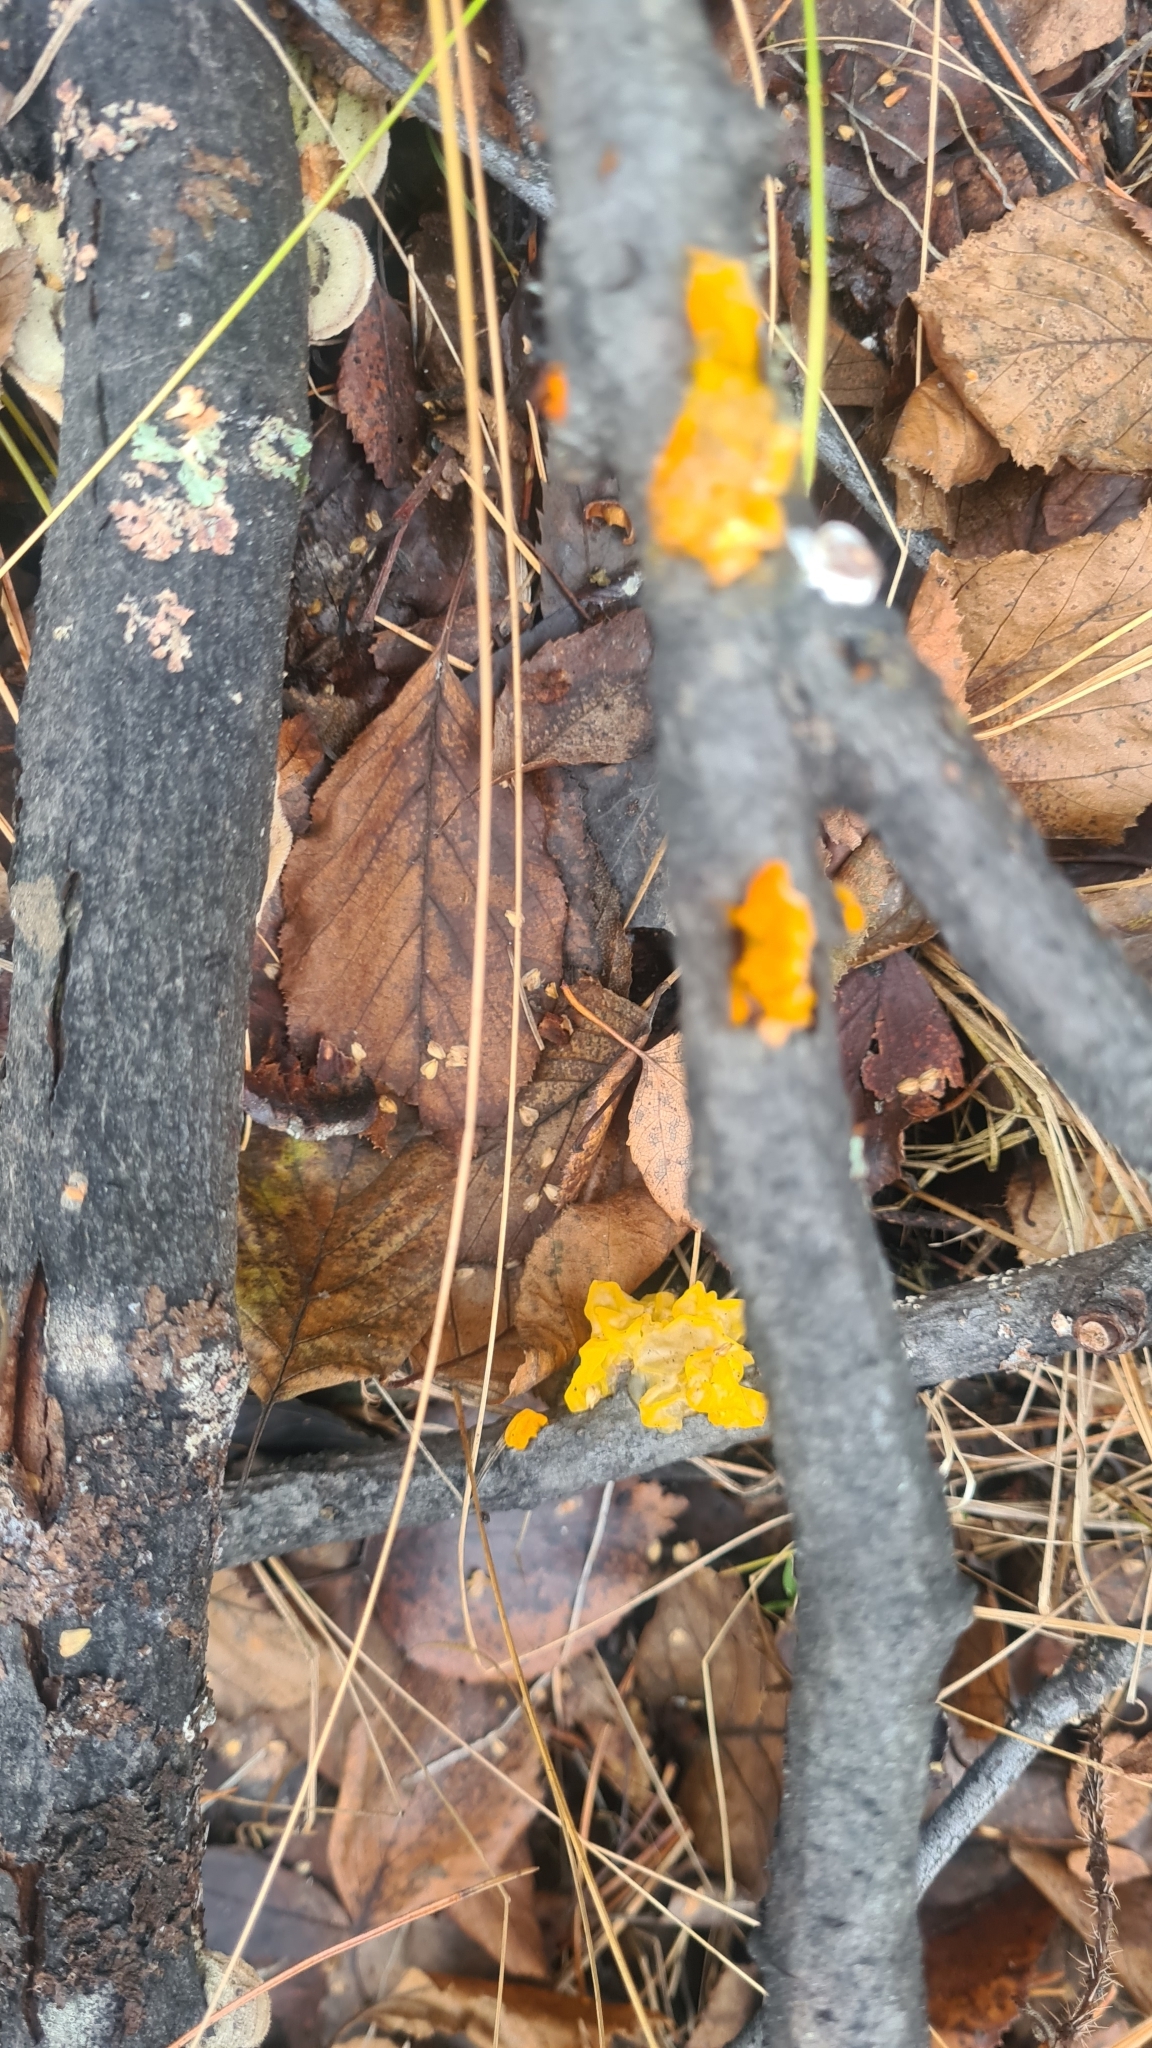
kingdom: Fungi
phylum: Basidiomycota
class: Tremellomycetes
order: Tremellales
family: Tremellaceae
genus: Tremella
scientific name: Tremella mesenterica
